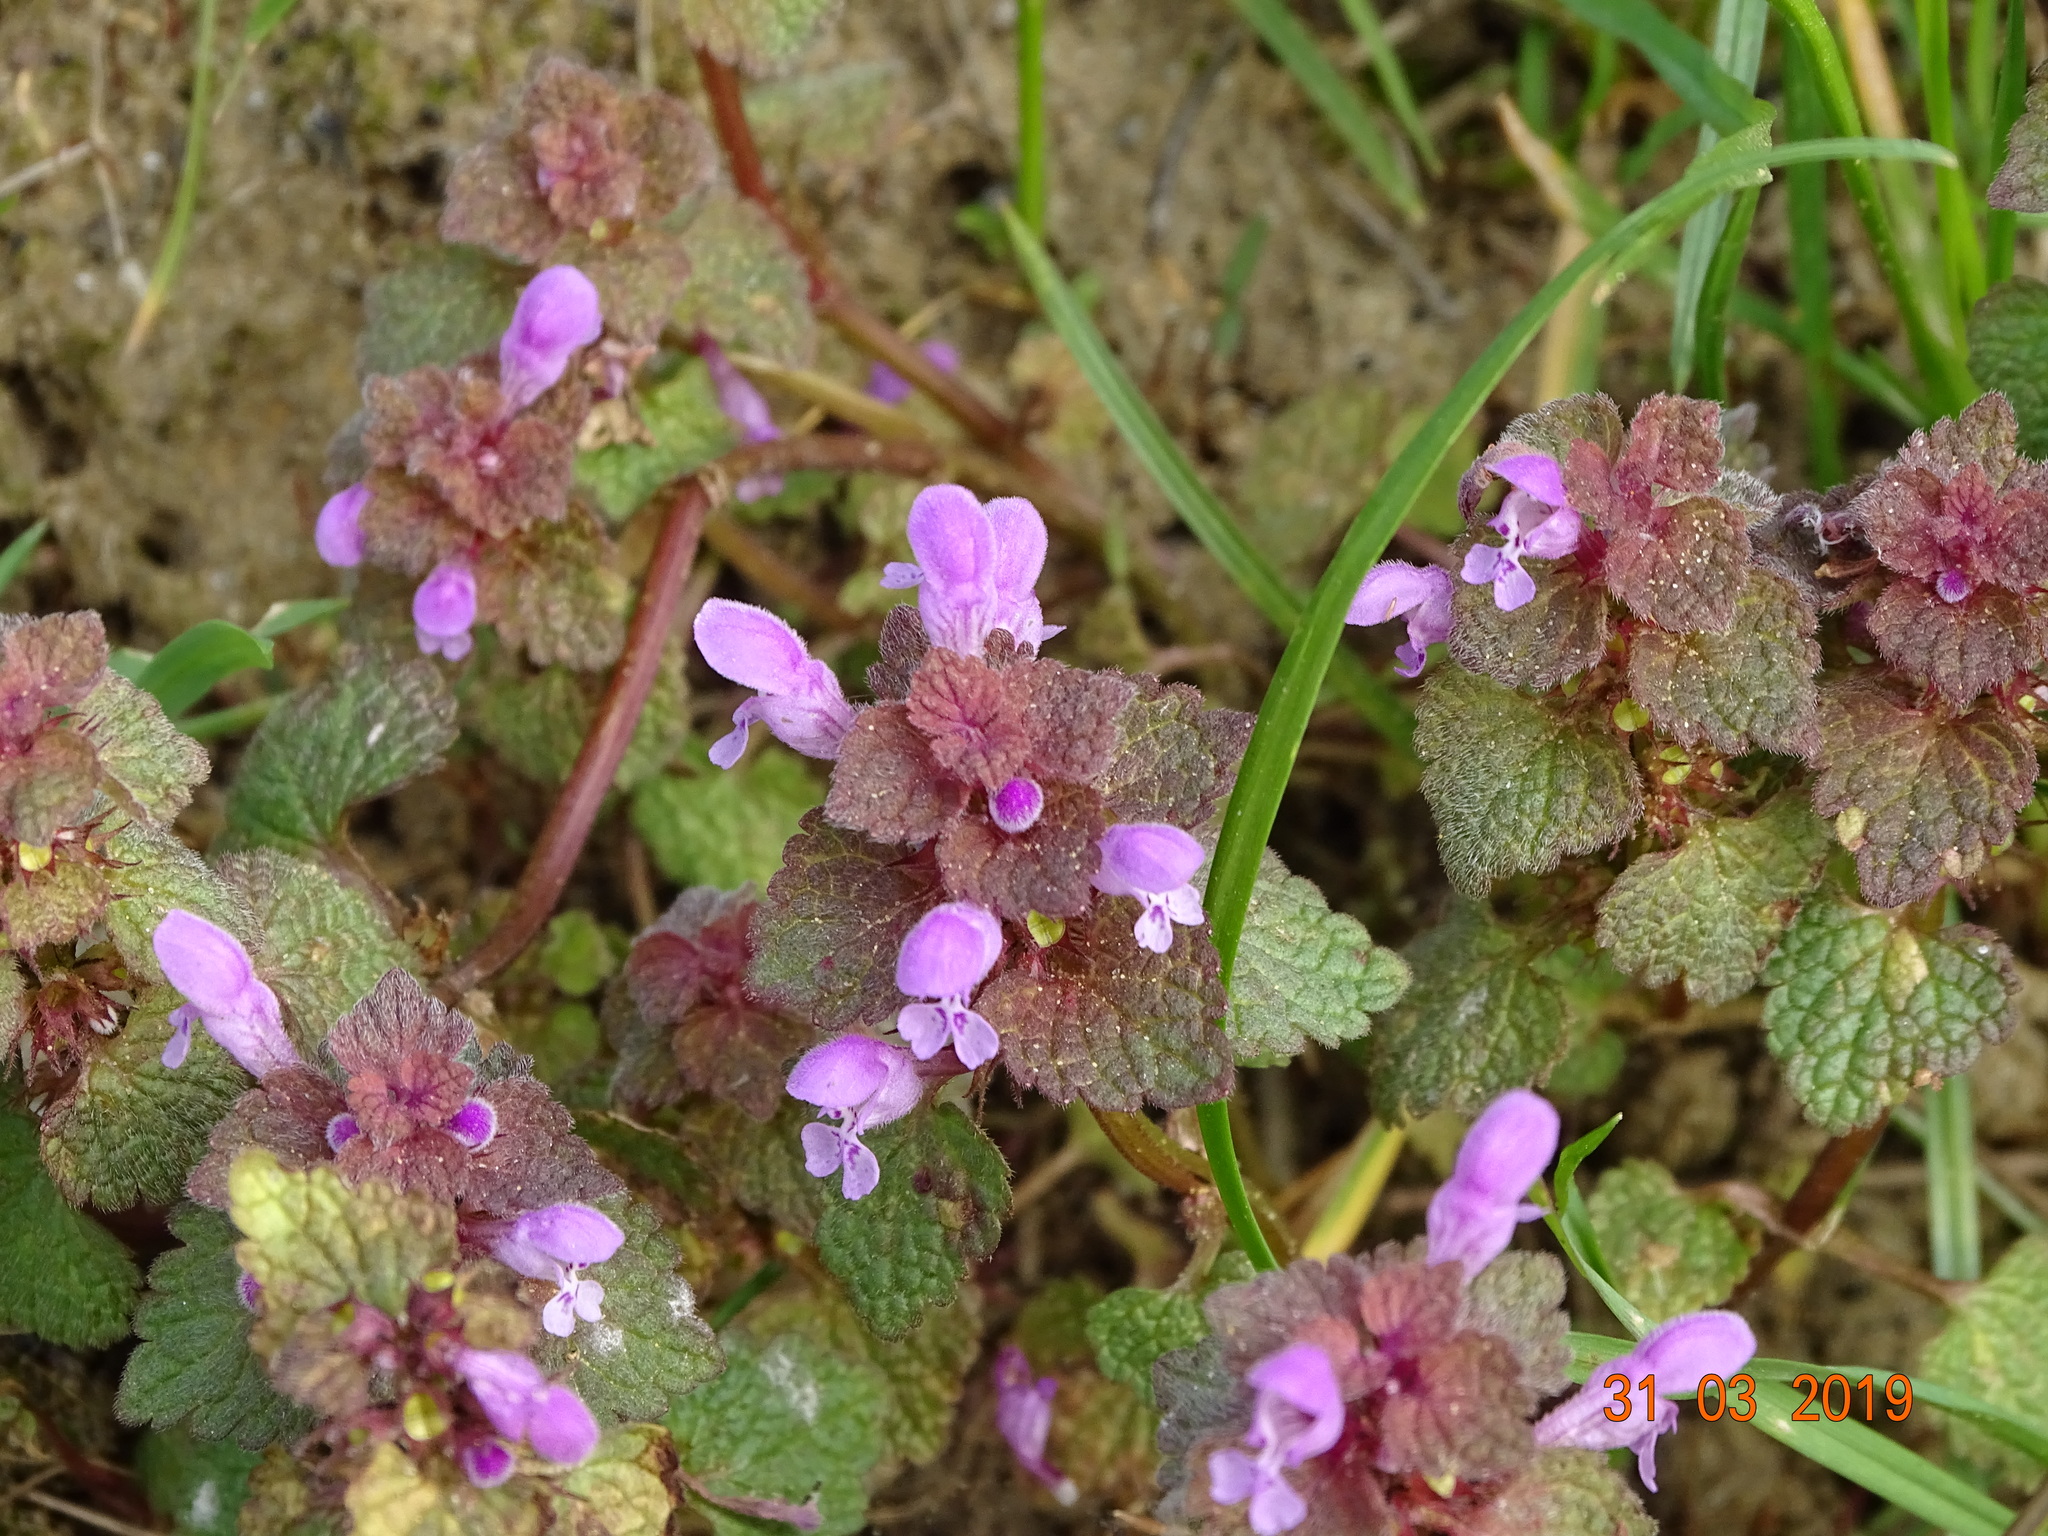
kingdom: Plantae
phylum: Tracheophyta
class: Magnoliopsida
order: Lamiales
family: Lamiaceae
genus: Lamium
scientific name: Lamium purpureum
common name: Red dead-nettle
